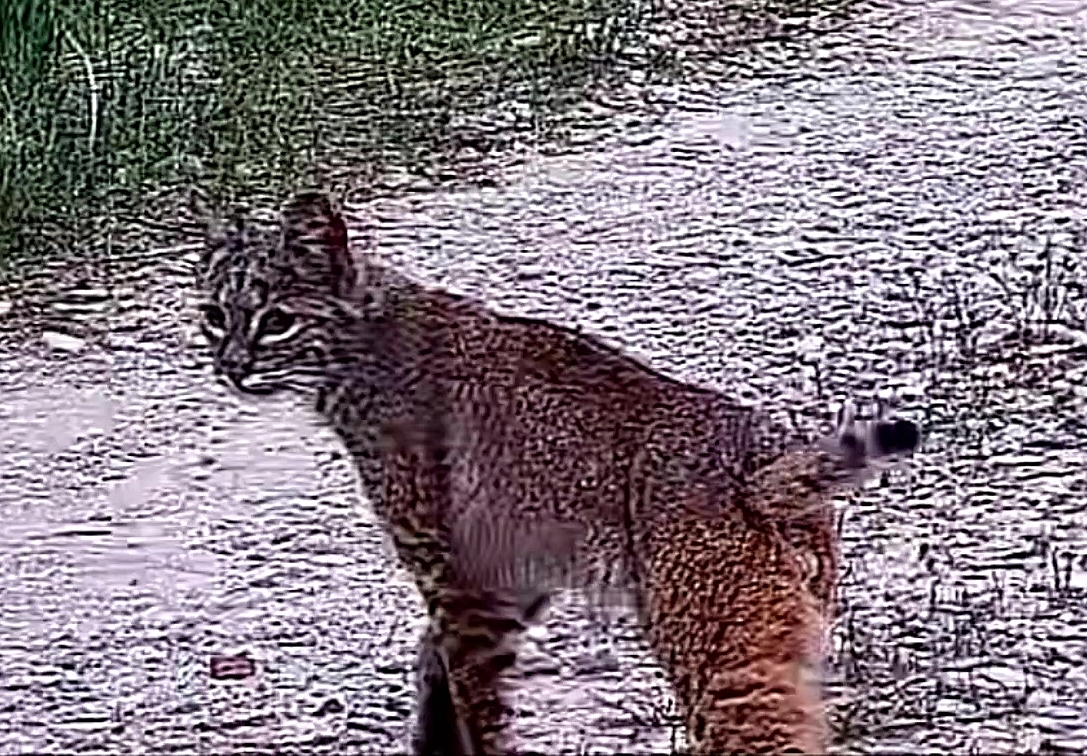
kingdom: Animalia
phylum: Chordata
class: Mammalia
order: Carnivora
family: Felidae
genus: Lynx
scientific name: Lynx rufus
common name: Bobcat
